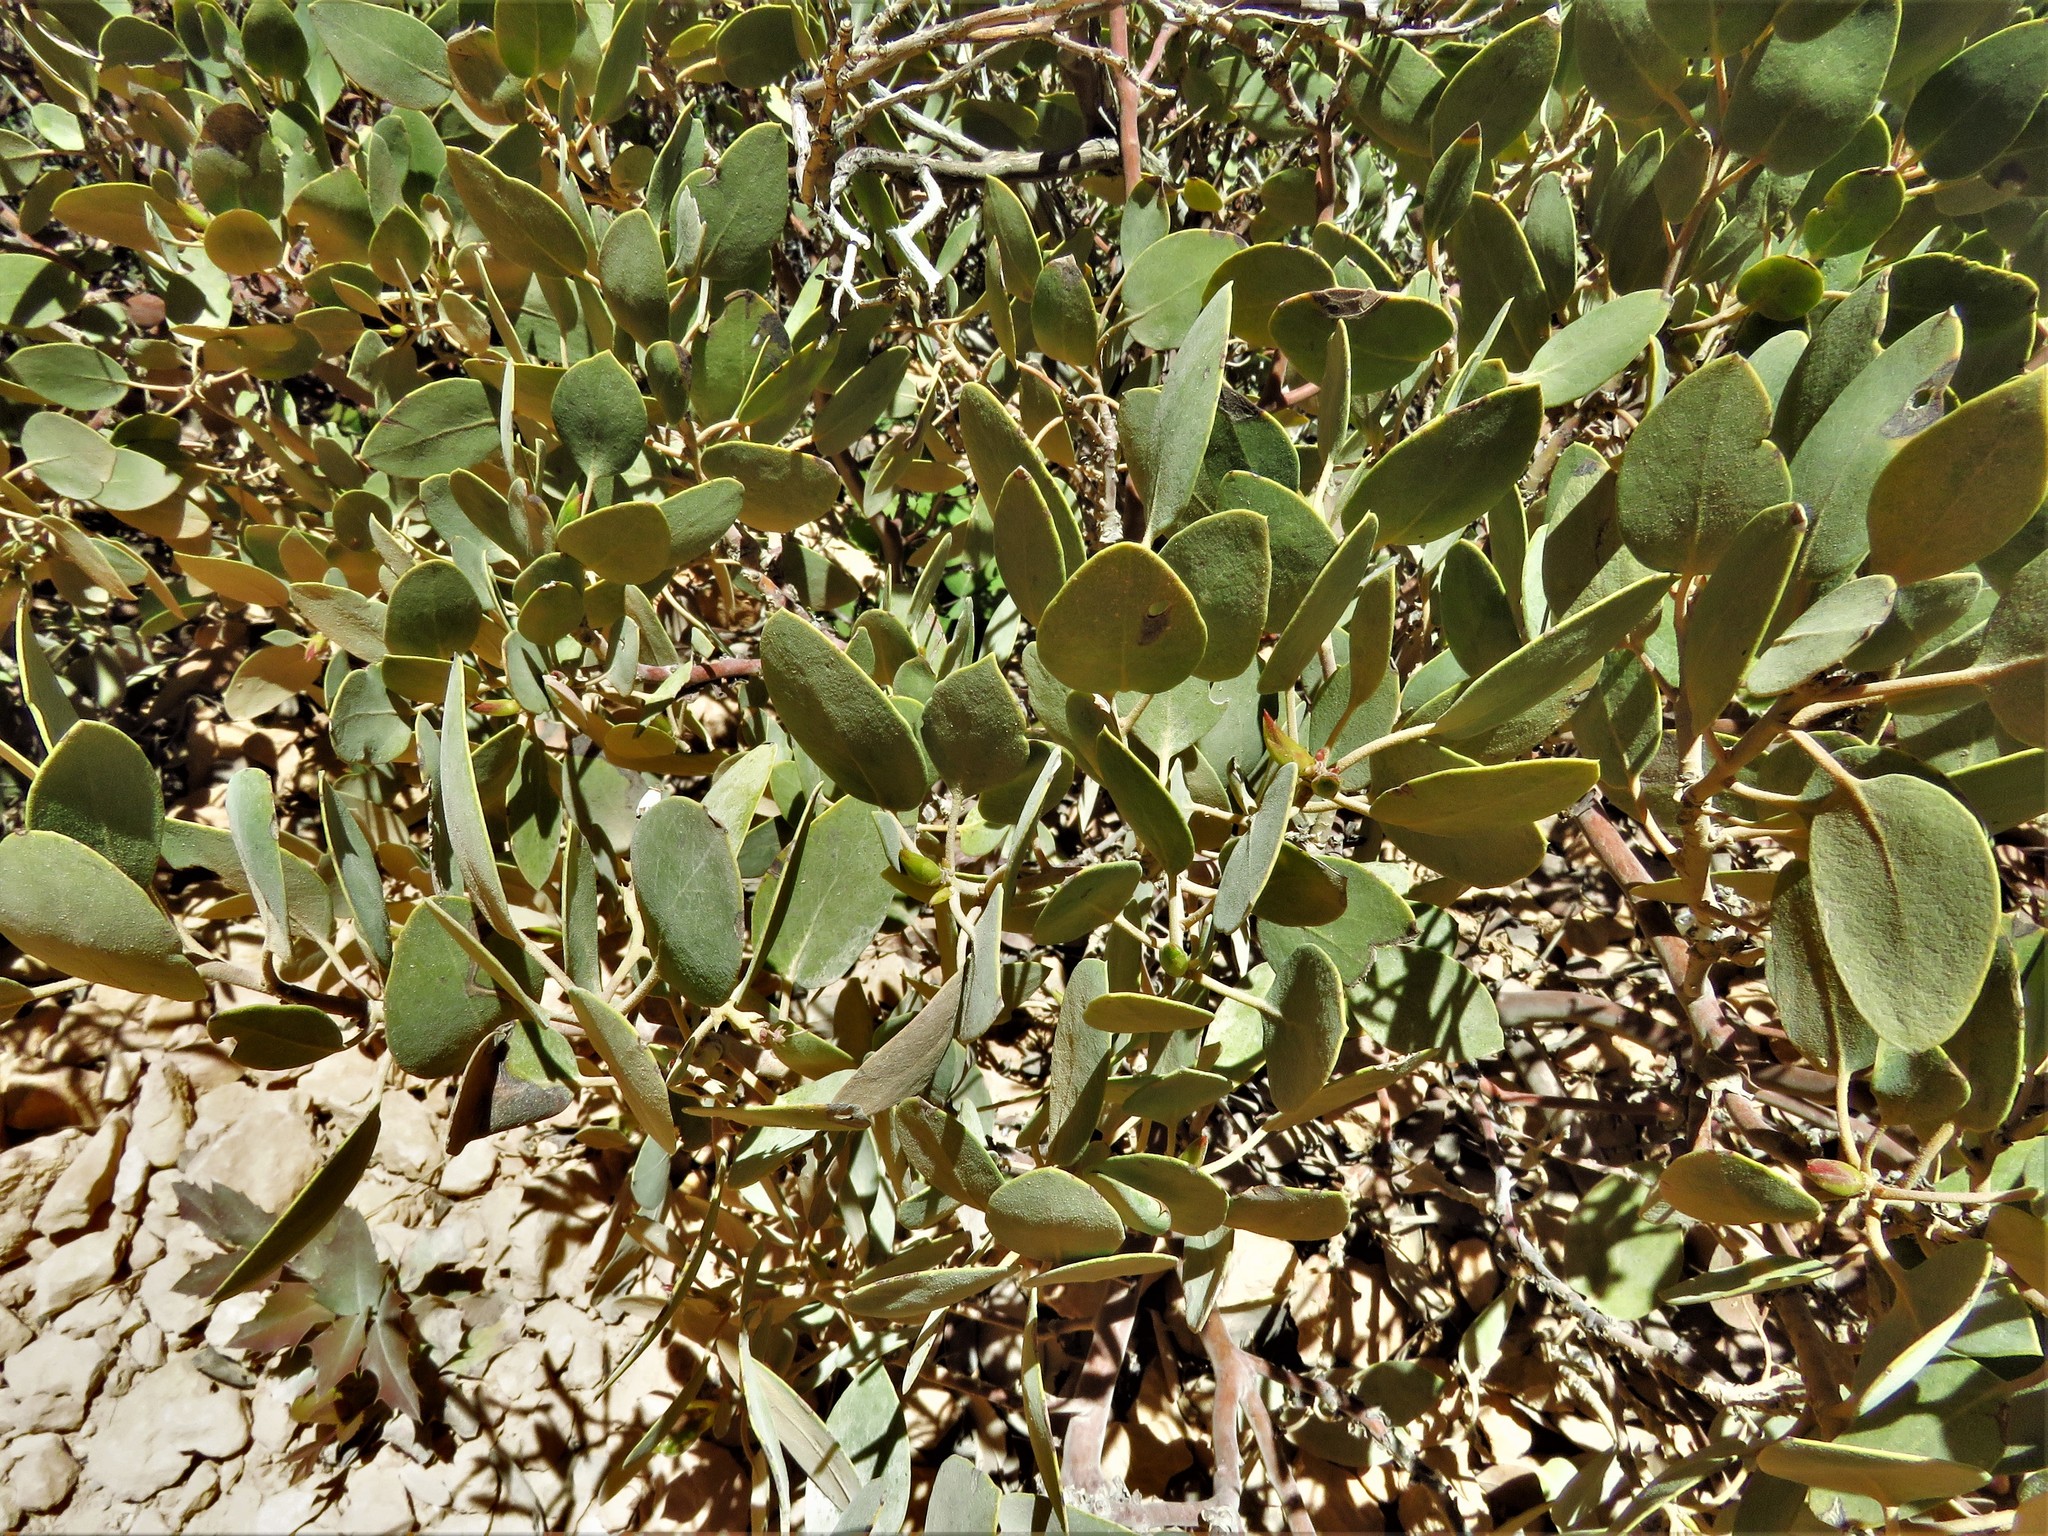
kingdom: Plantae
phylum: Tracheophyta
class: Magnoliopsida
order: Ericales
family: Ericaceae
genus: Arctostaphylos
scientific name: Arctostaphylos patula
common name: Green-leaf manzanita
